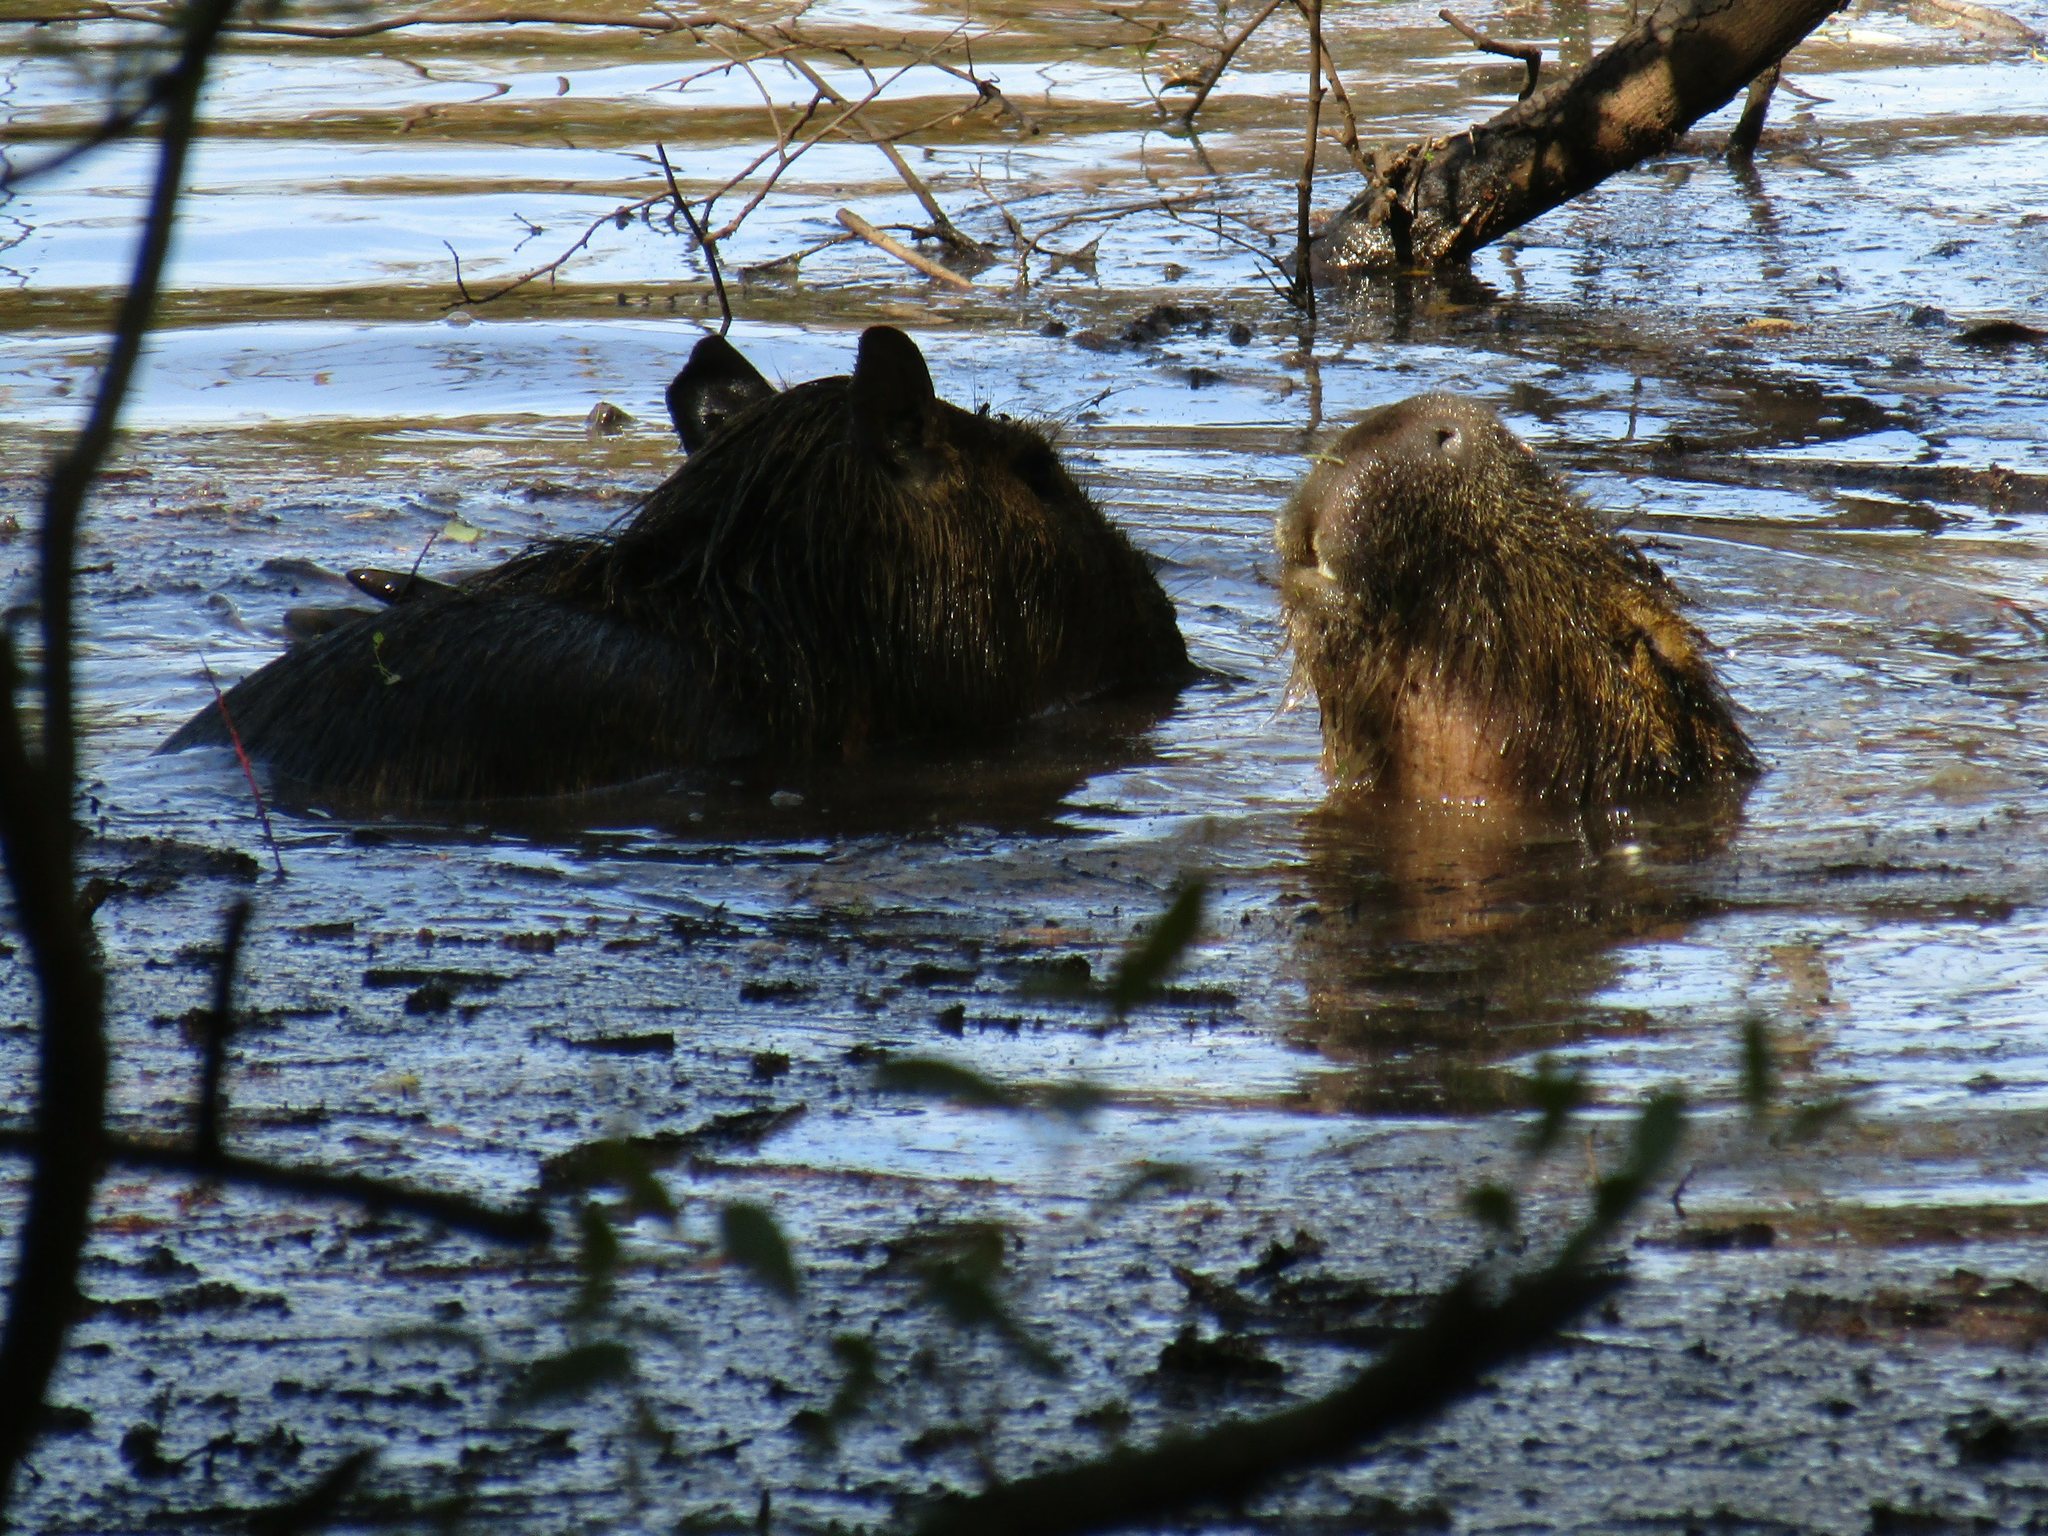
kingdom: Animalia
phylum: Chordata
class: Mammalia
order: Rodentia
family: Caviidae
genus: Hydrochoerus
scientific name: Hydrochoerus hydrochaeris
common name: Capybara
